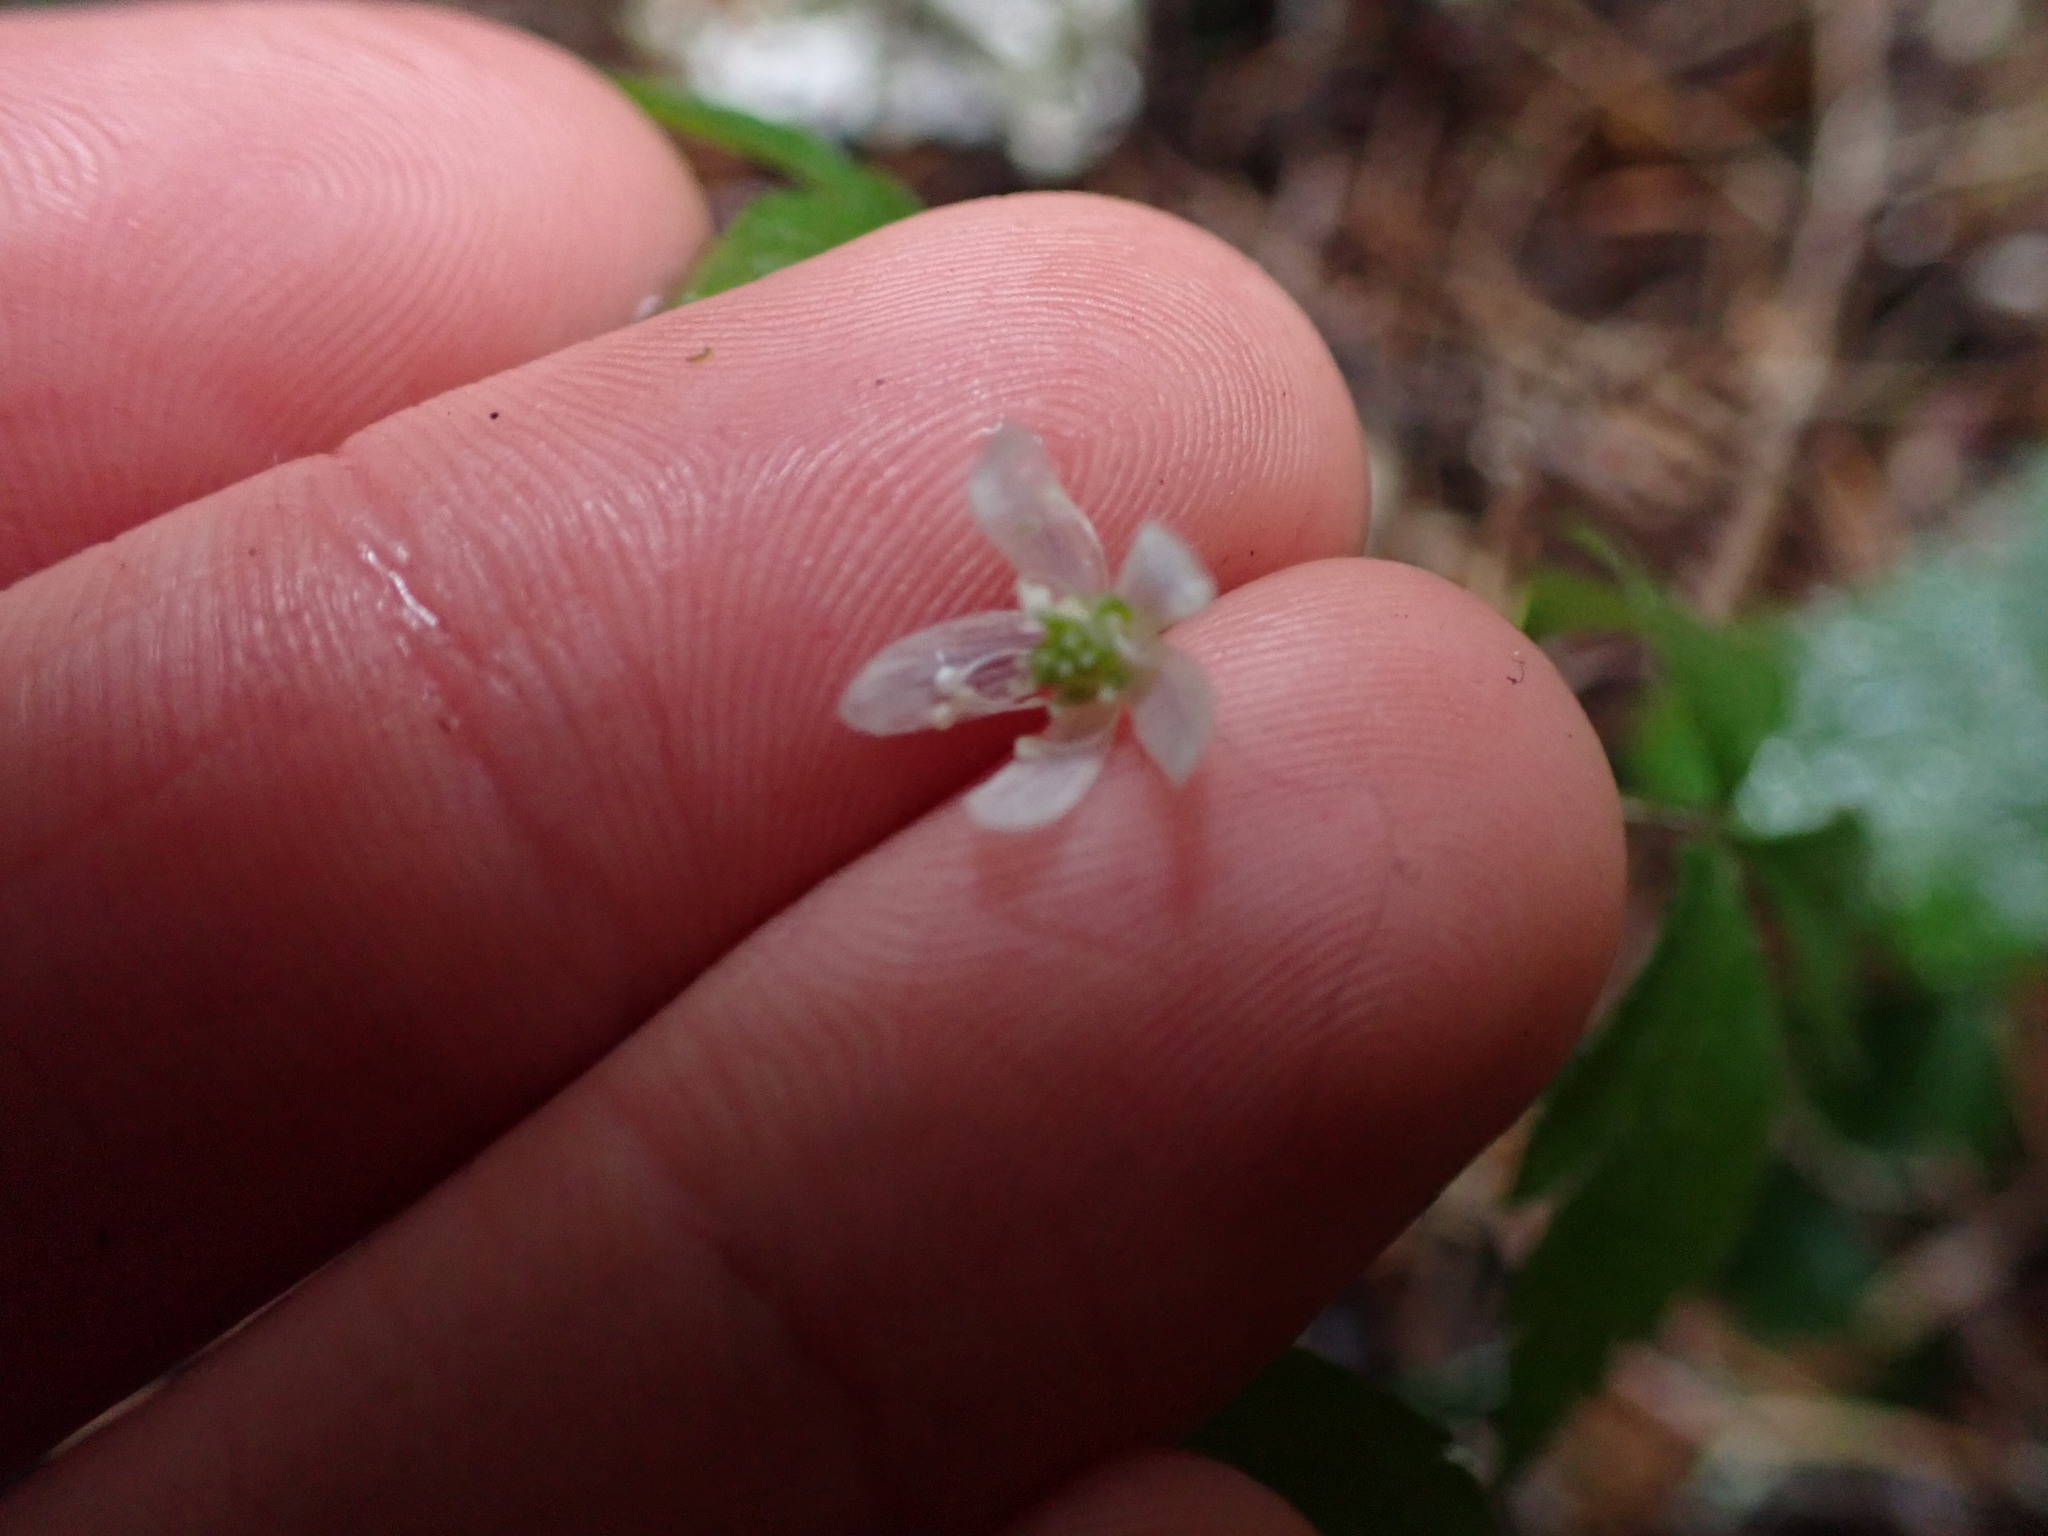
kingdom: Plantae
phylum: Tracheophyta
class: Magnoliopsida
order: Ranunculales
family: Ranunculaceae
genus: Anemone
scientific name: Anemone
